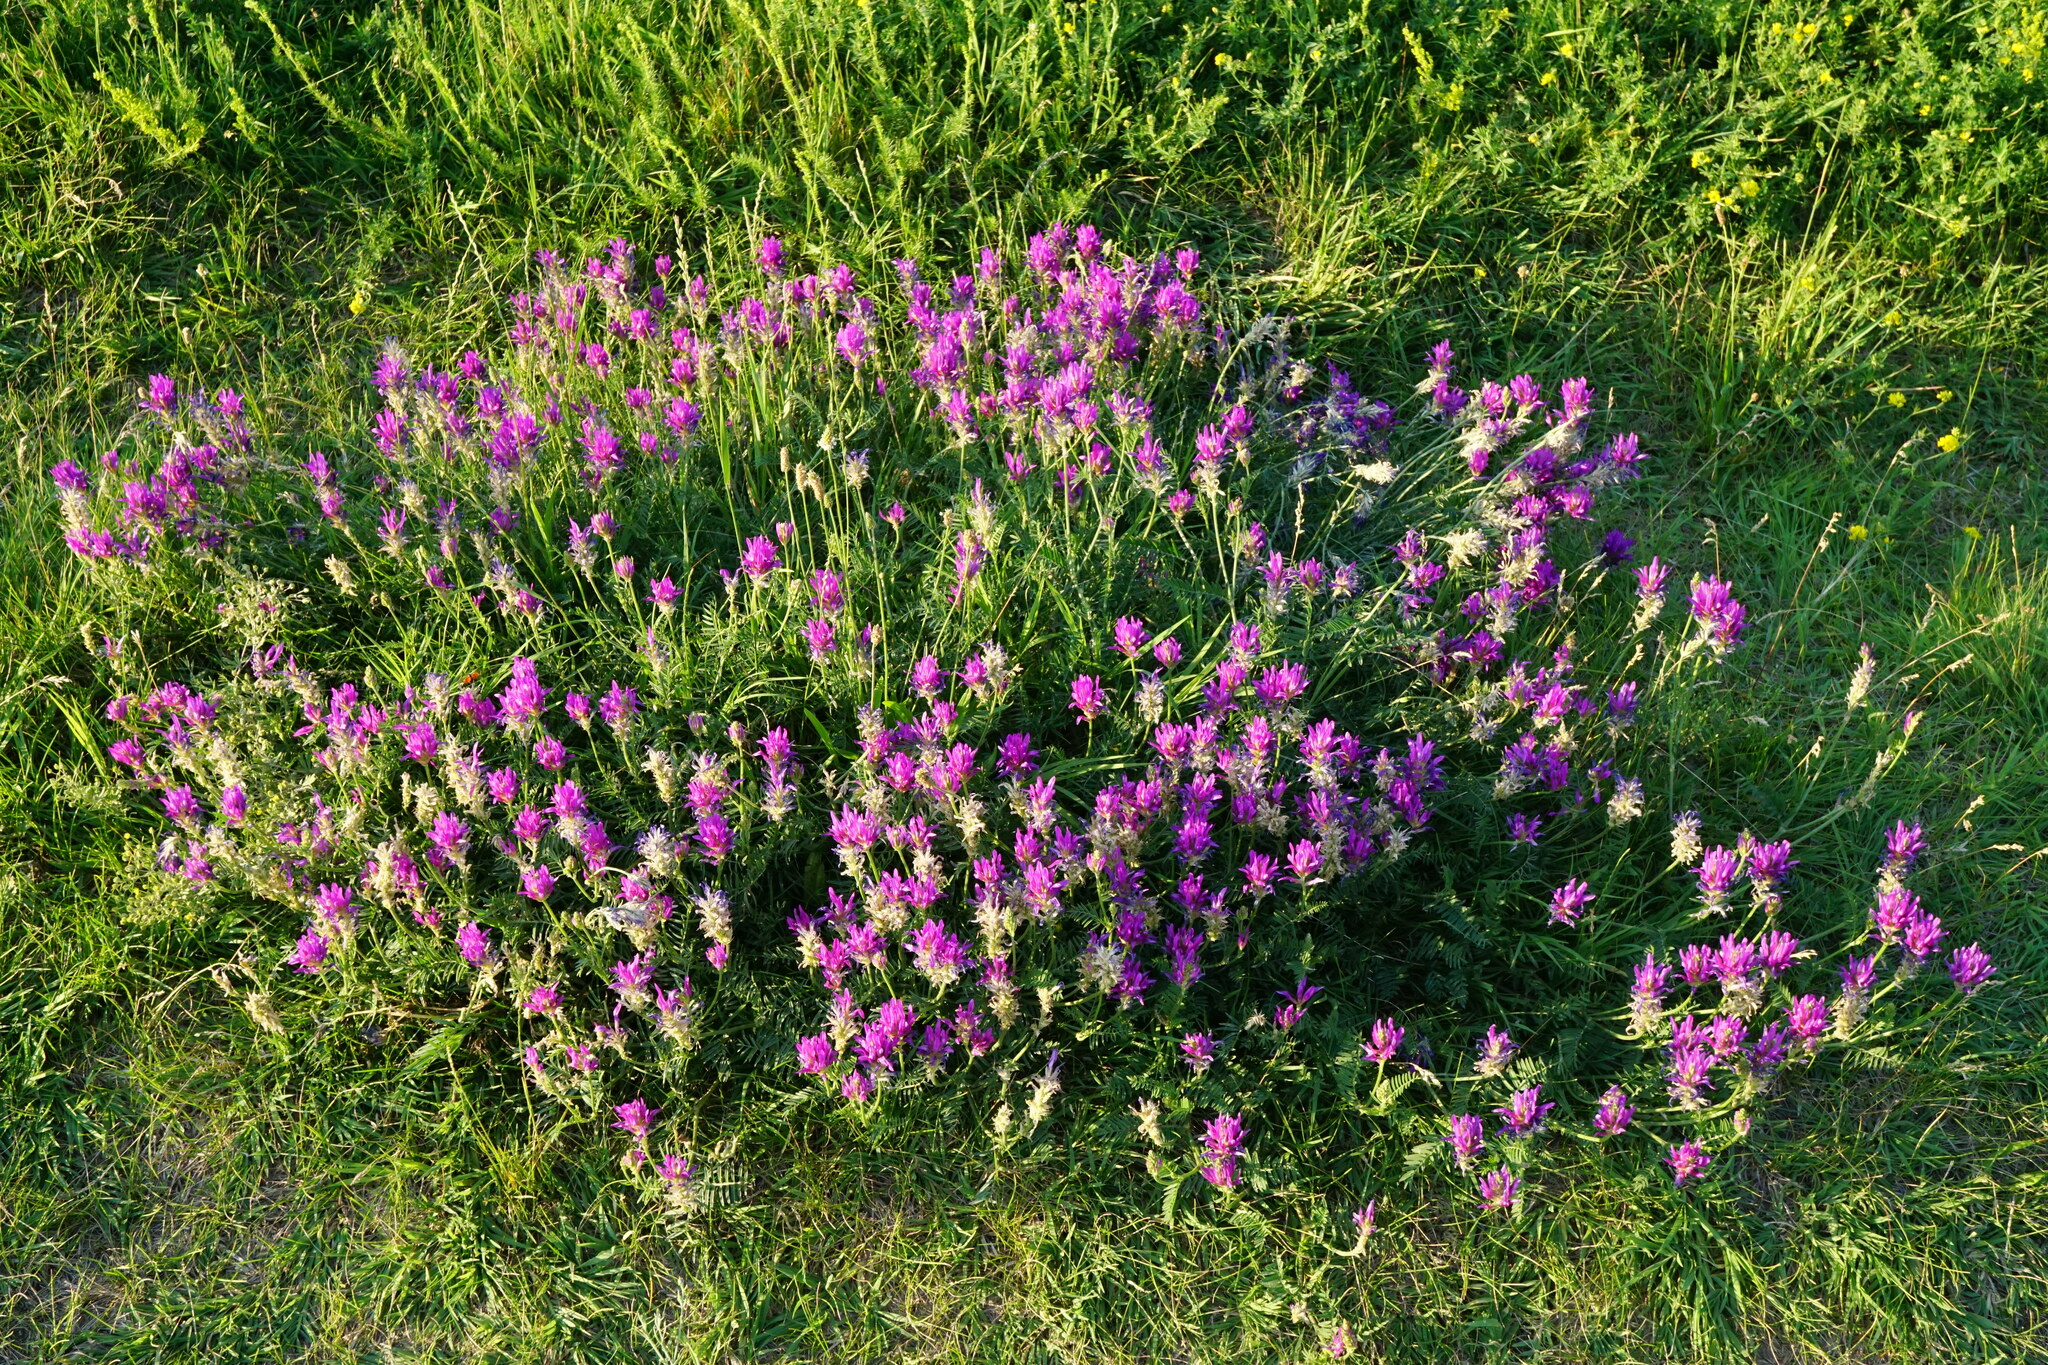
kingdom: Plantae
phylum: Tracheophyta
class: Magnoliopsida
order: Fabales
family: Fabaceae
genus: Astragalus
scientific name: Astragalus onobrychis
